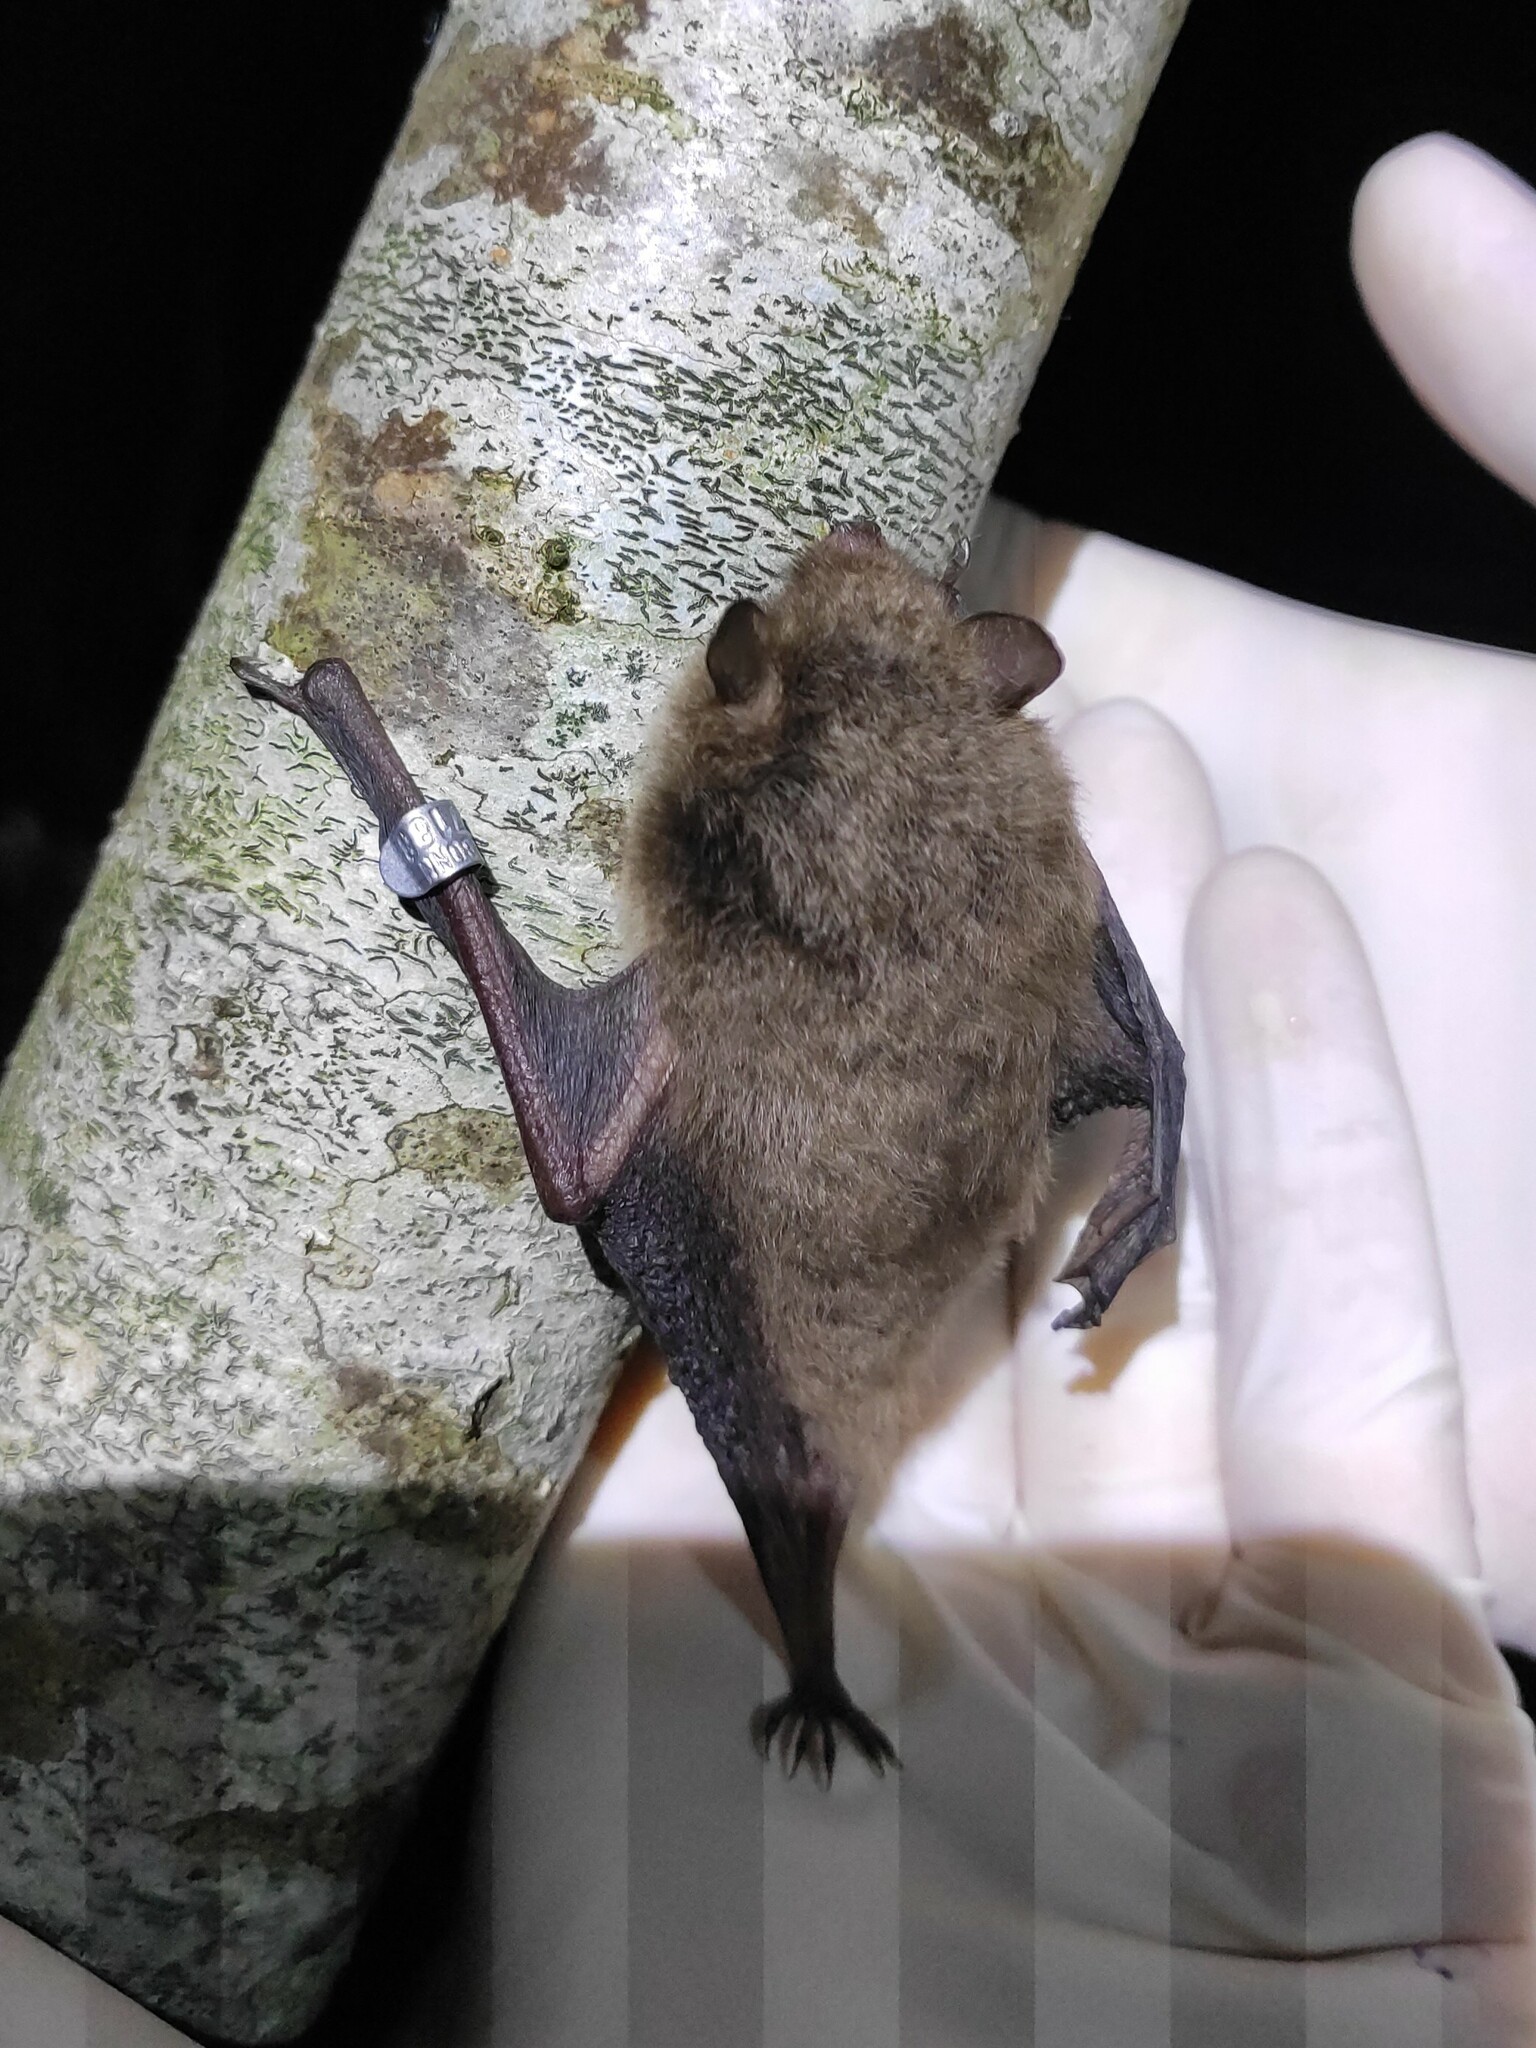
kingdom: Animalia
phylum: Chordata
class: Mammalia
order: Chiroptera
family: Vespertilionidae
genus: Myotis
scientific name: Myotis daubentonii
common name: Daubenton's myotis
